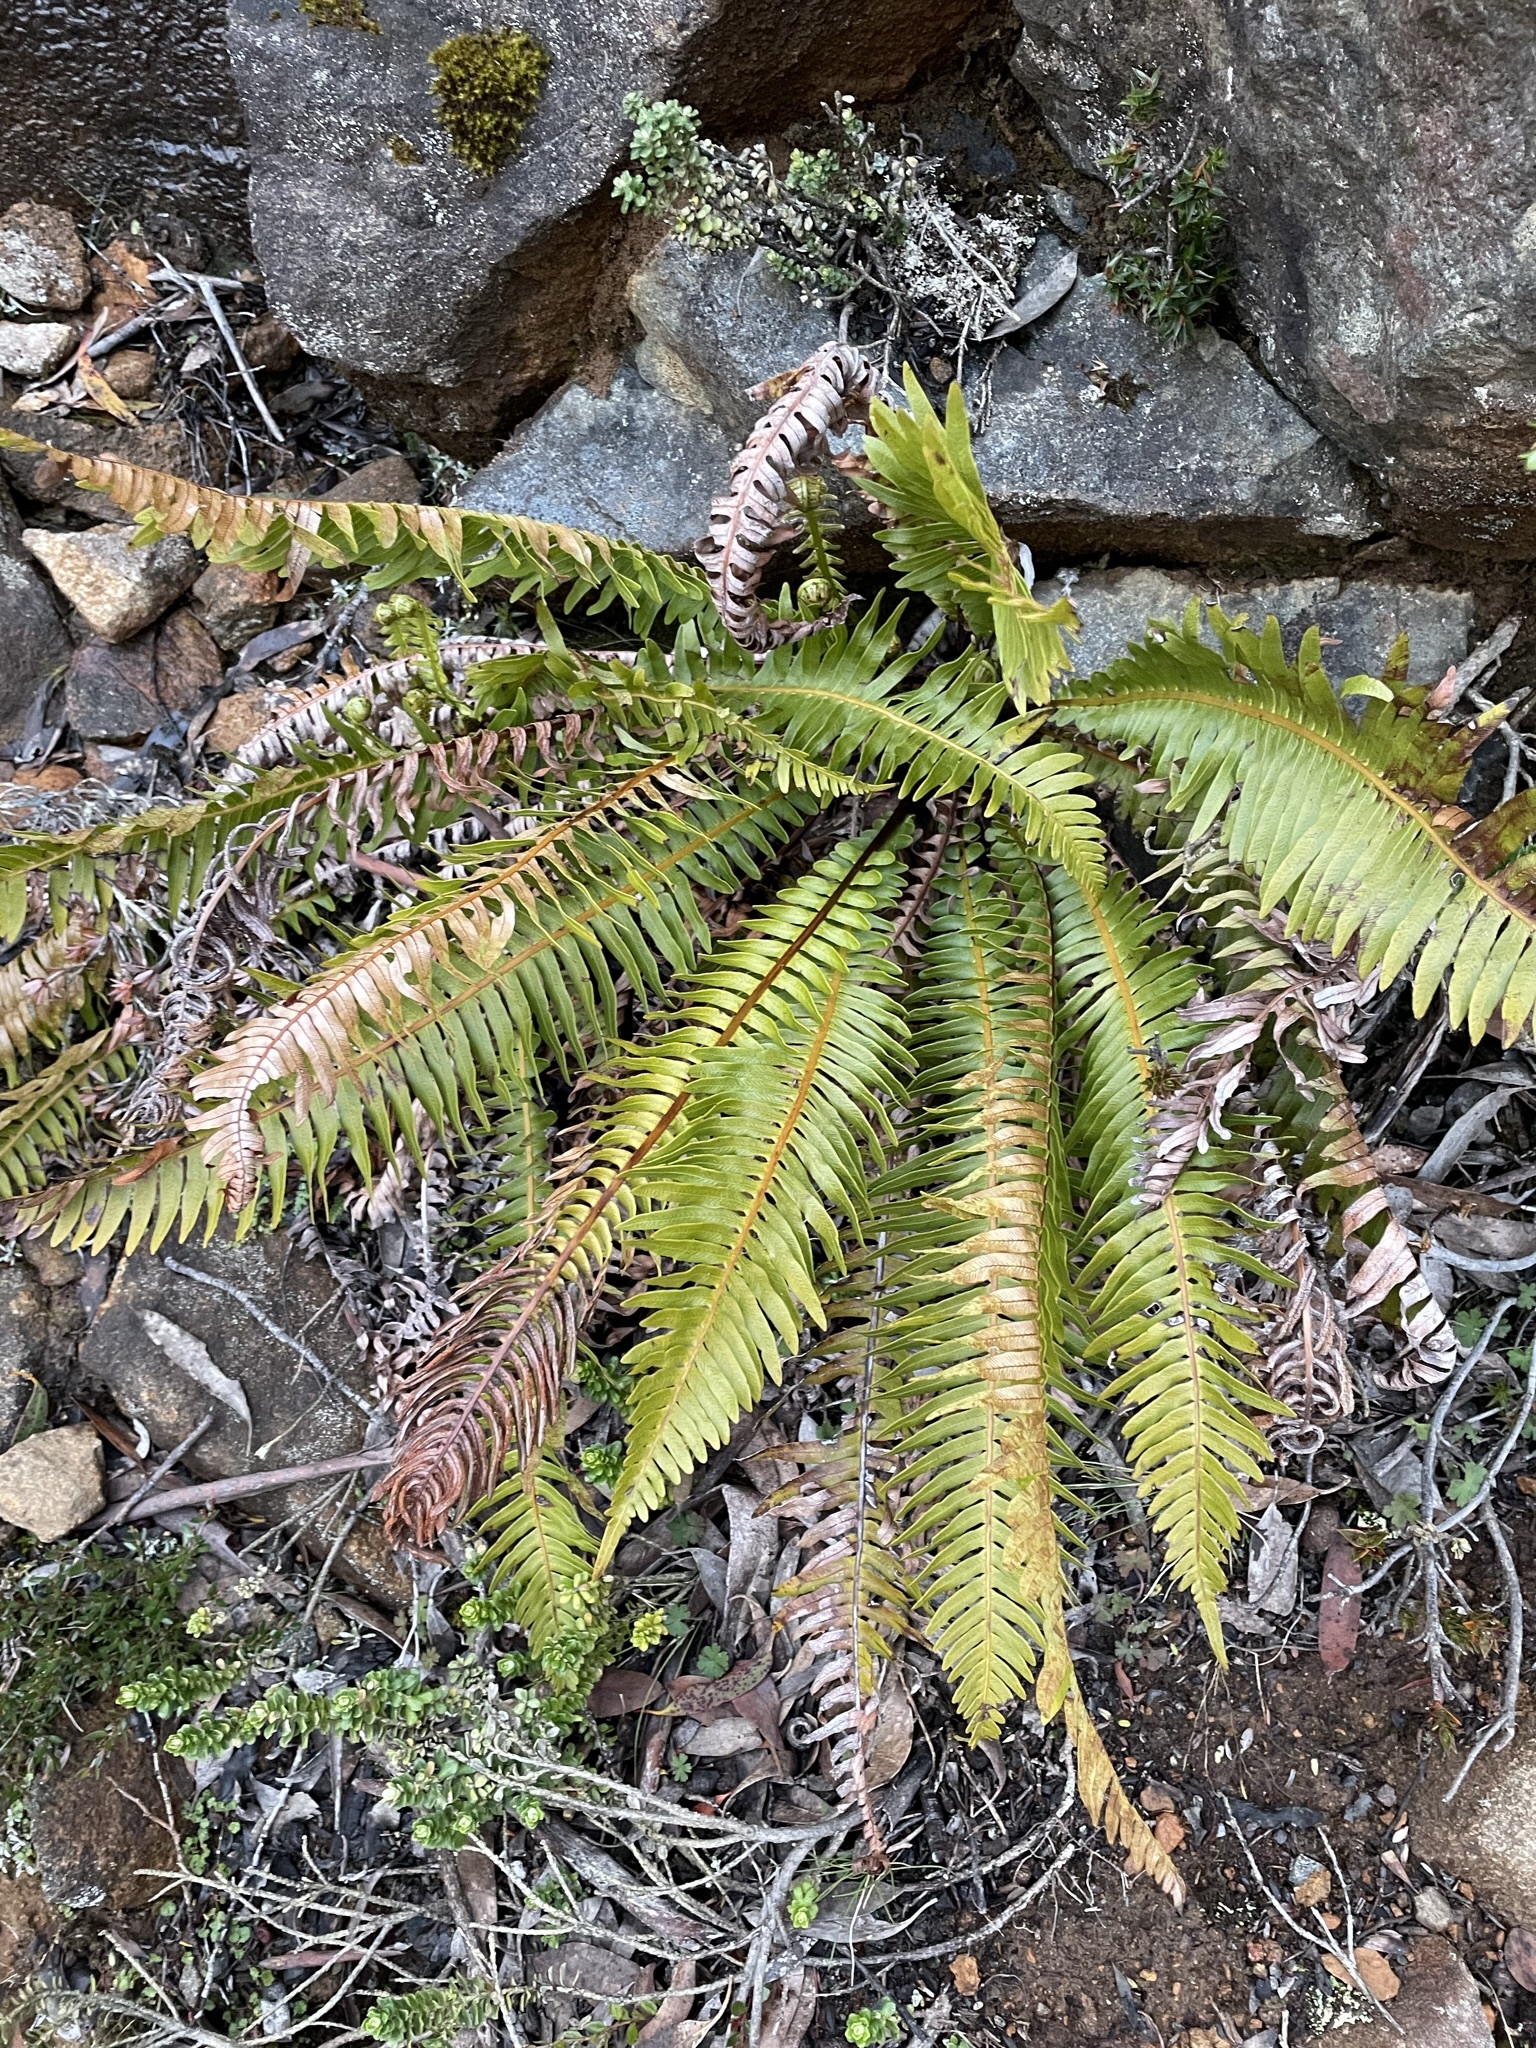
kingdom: Plantae
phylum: Tracheophyta
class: Polypodiopsida
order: Polypodiales
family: Blechnaceae
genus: Lomaria
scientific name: Lomaria nuda
